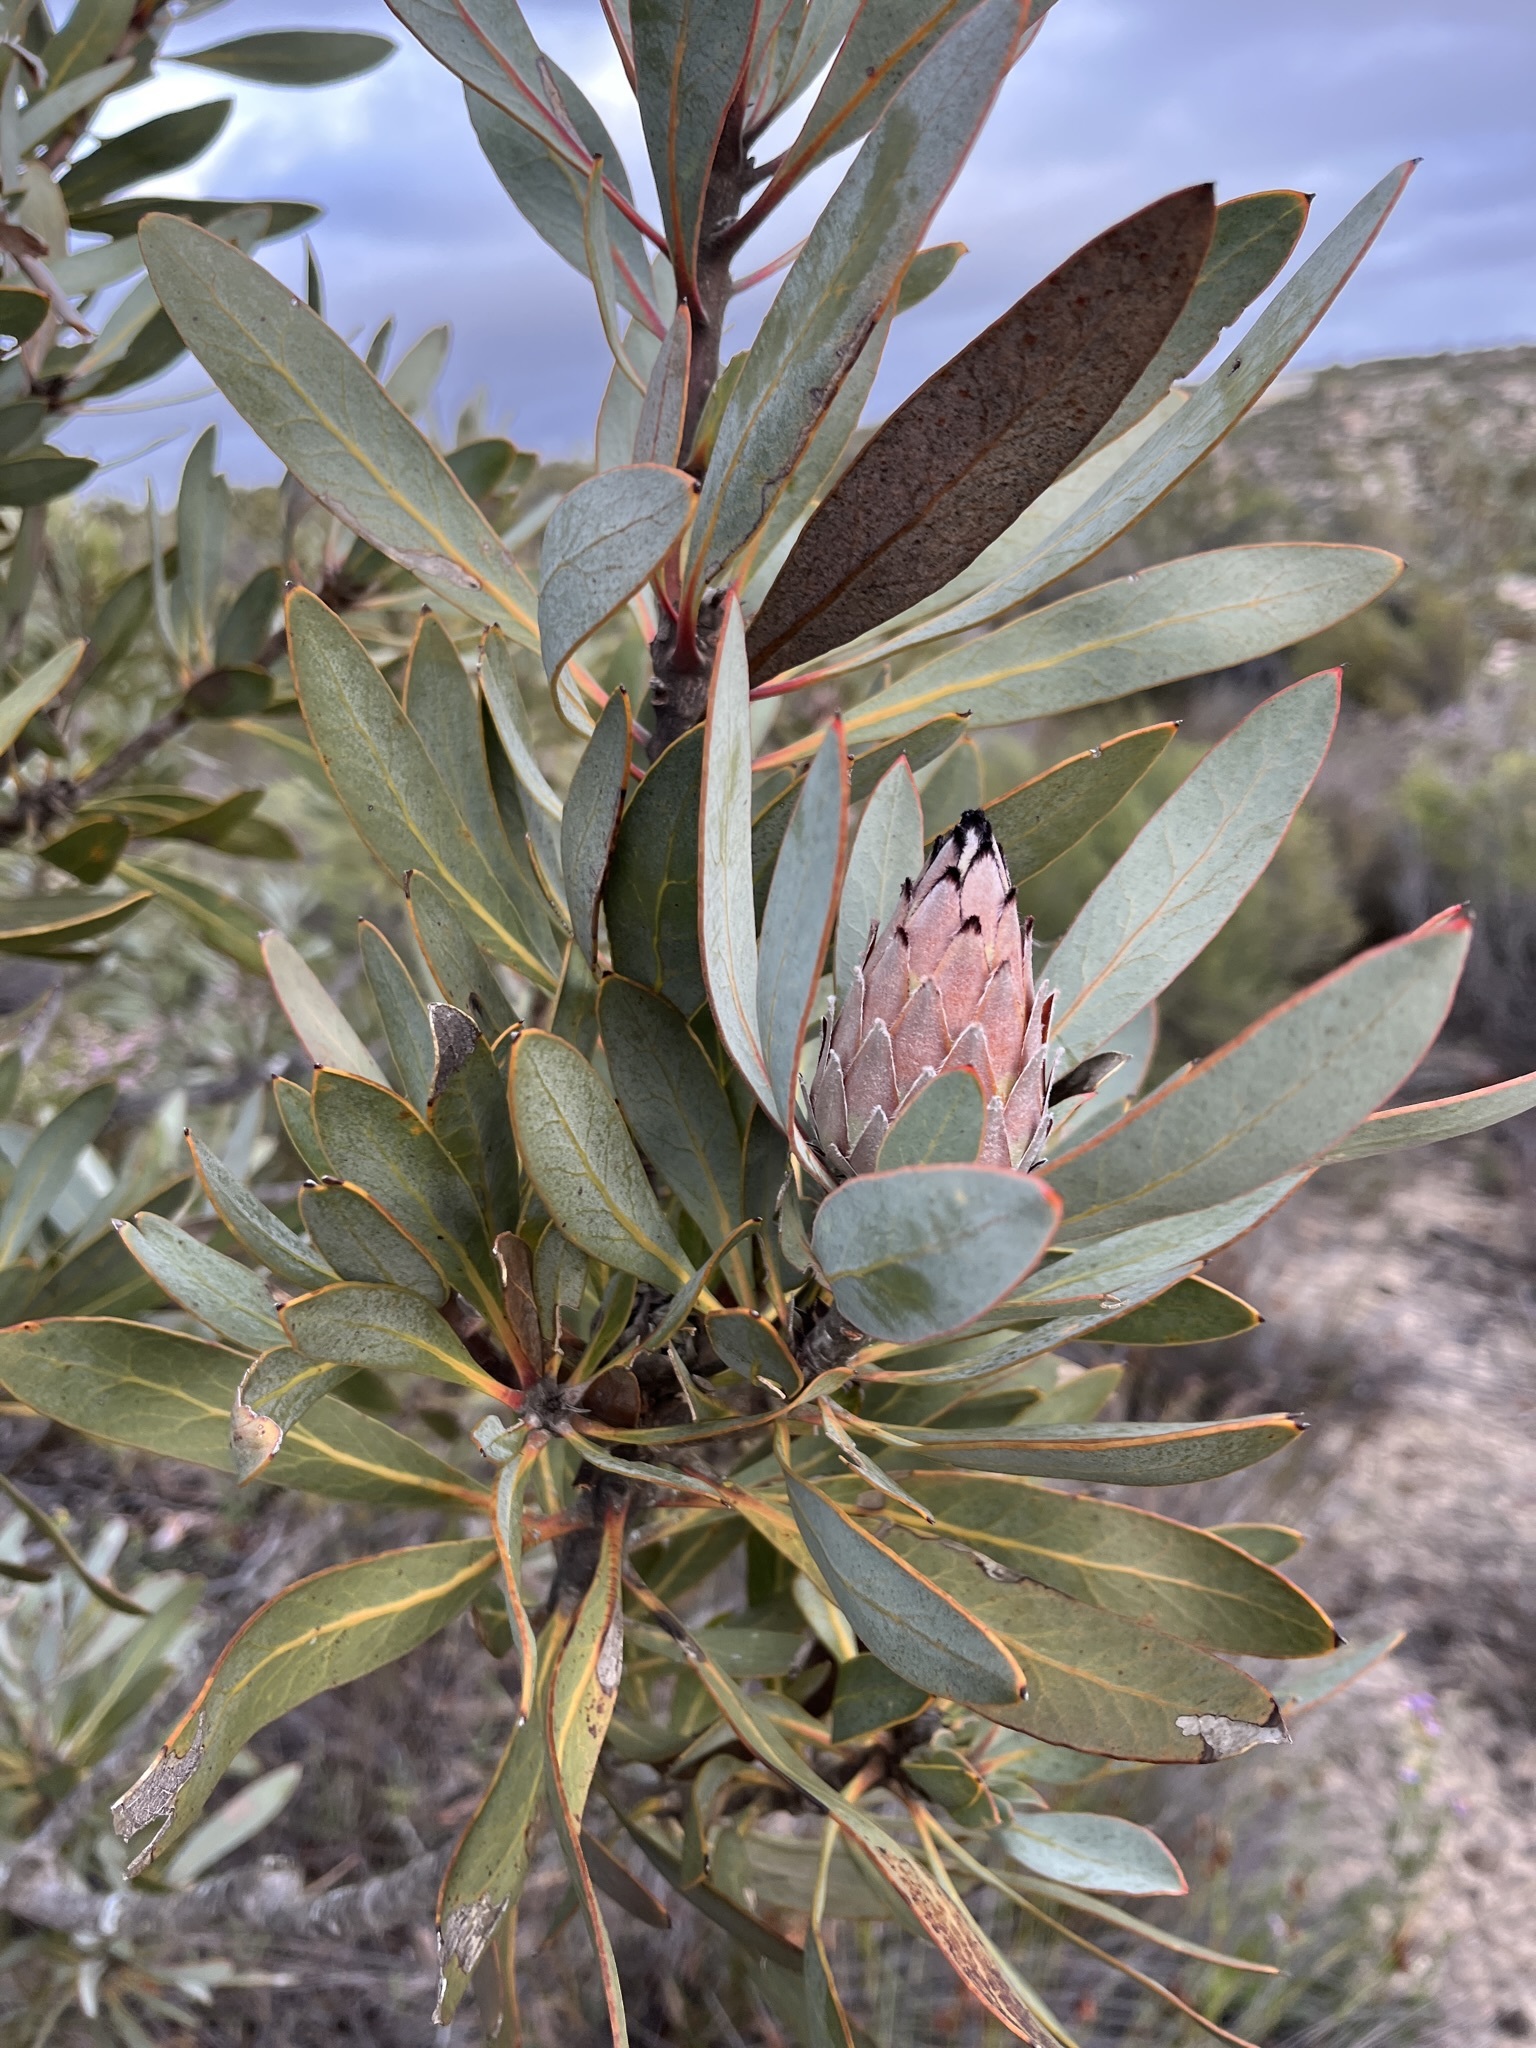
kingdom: Plantae
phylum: Tracheophyta
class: Magnoliopsida
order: Proteales
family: Proteaceae
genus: Protea
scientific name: Protea laurifolia
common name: Grey-leaf sugarbsh
